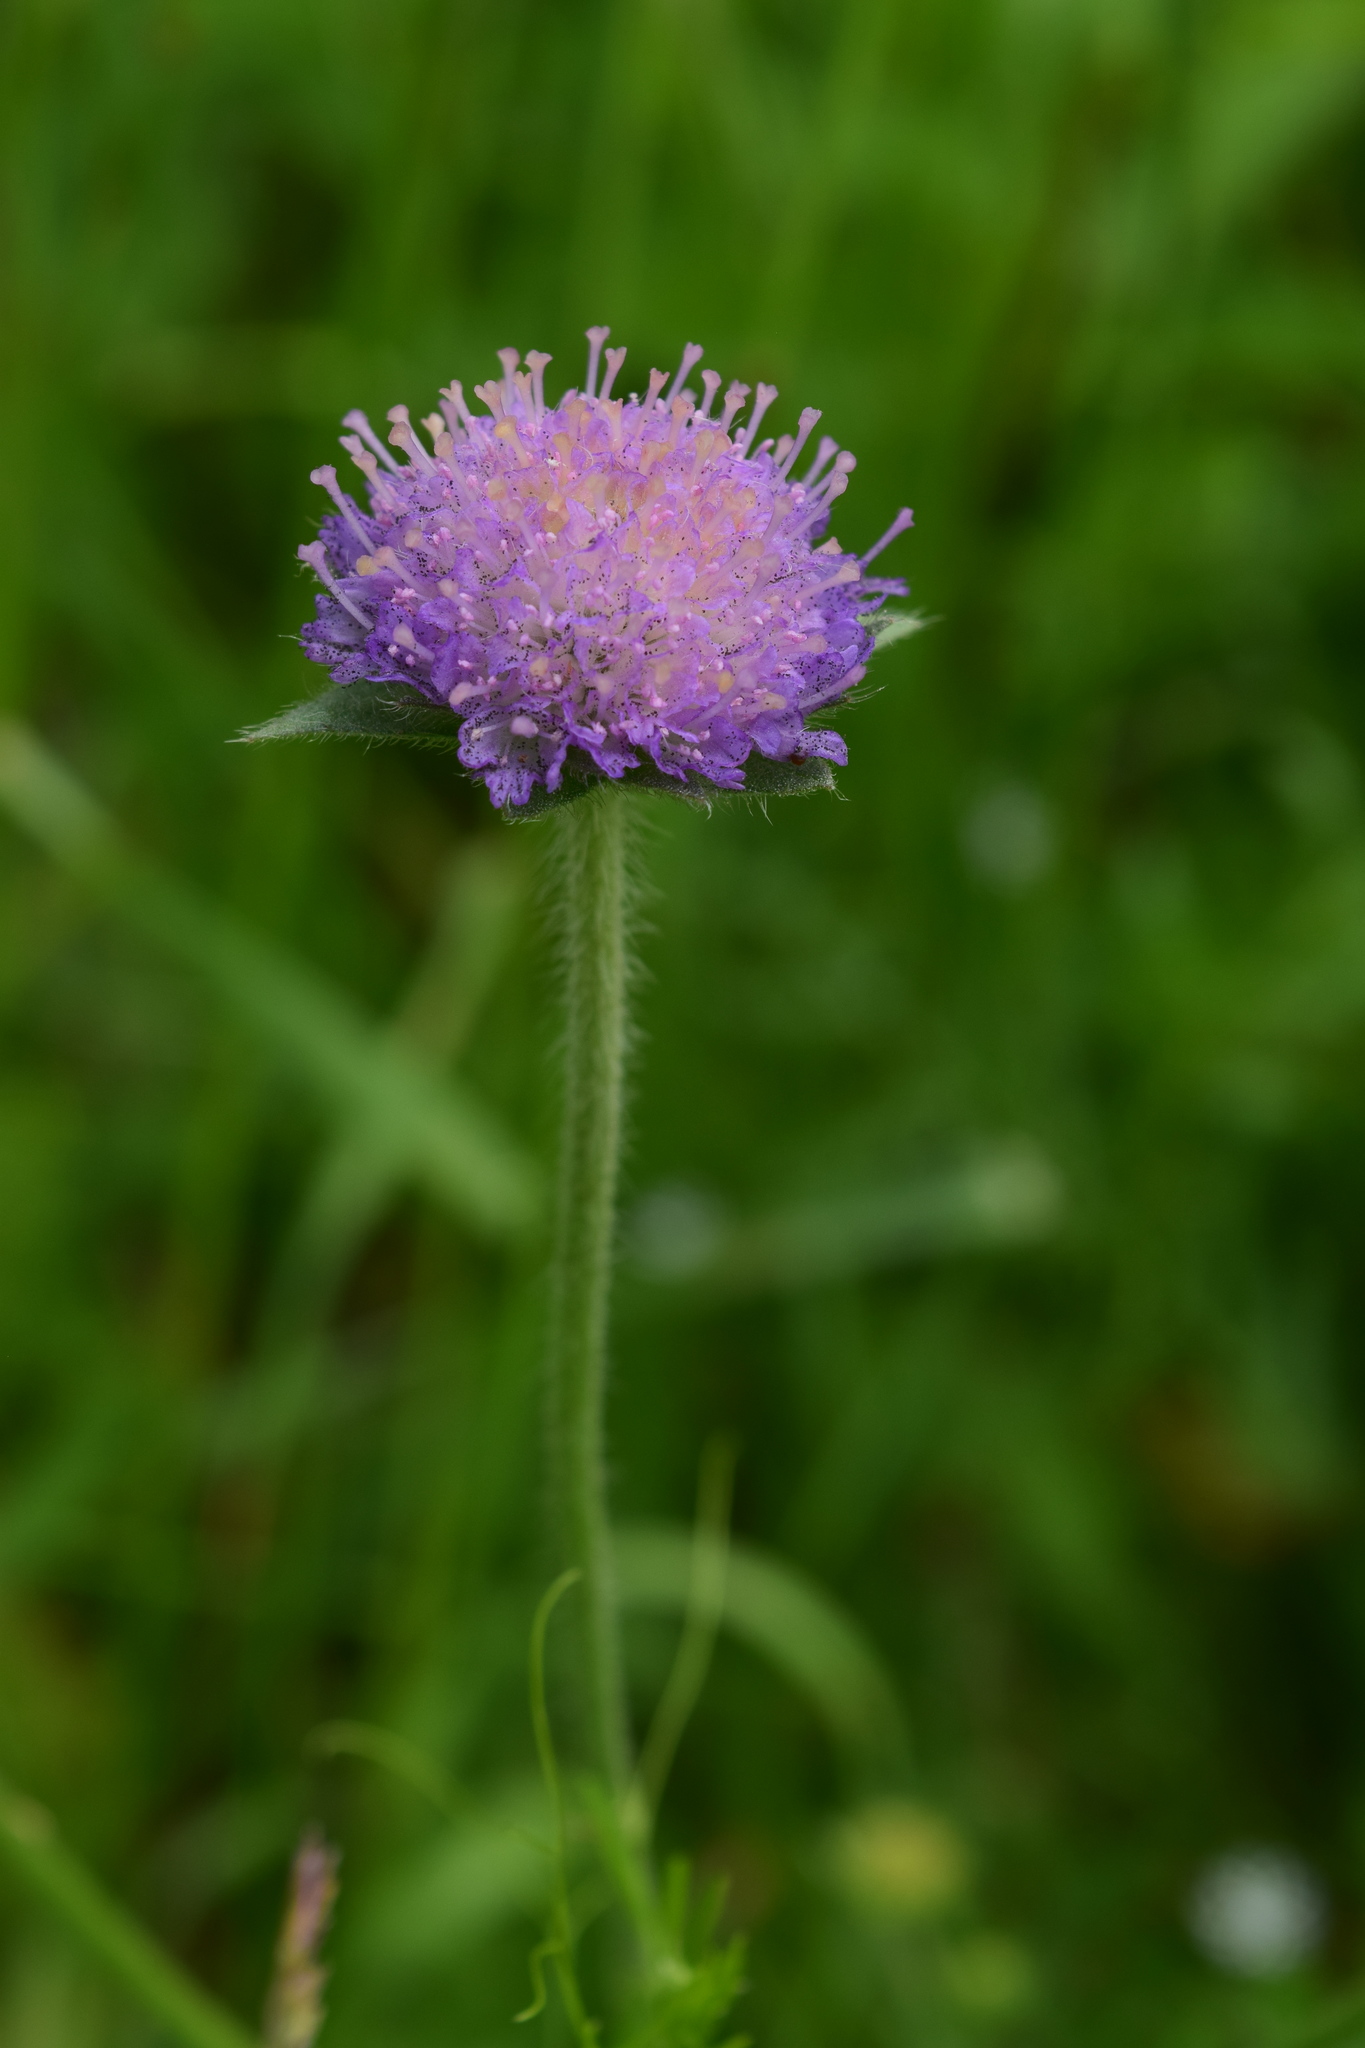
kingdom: Plantae
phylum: Tracheophyta
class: Magnoliopsida
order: Dipsacales
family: Caprifoliaceae
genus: Knautia
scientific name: Knautia arvensis
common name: Field scabiosa
